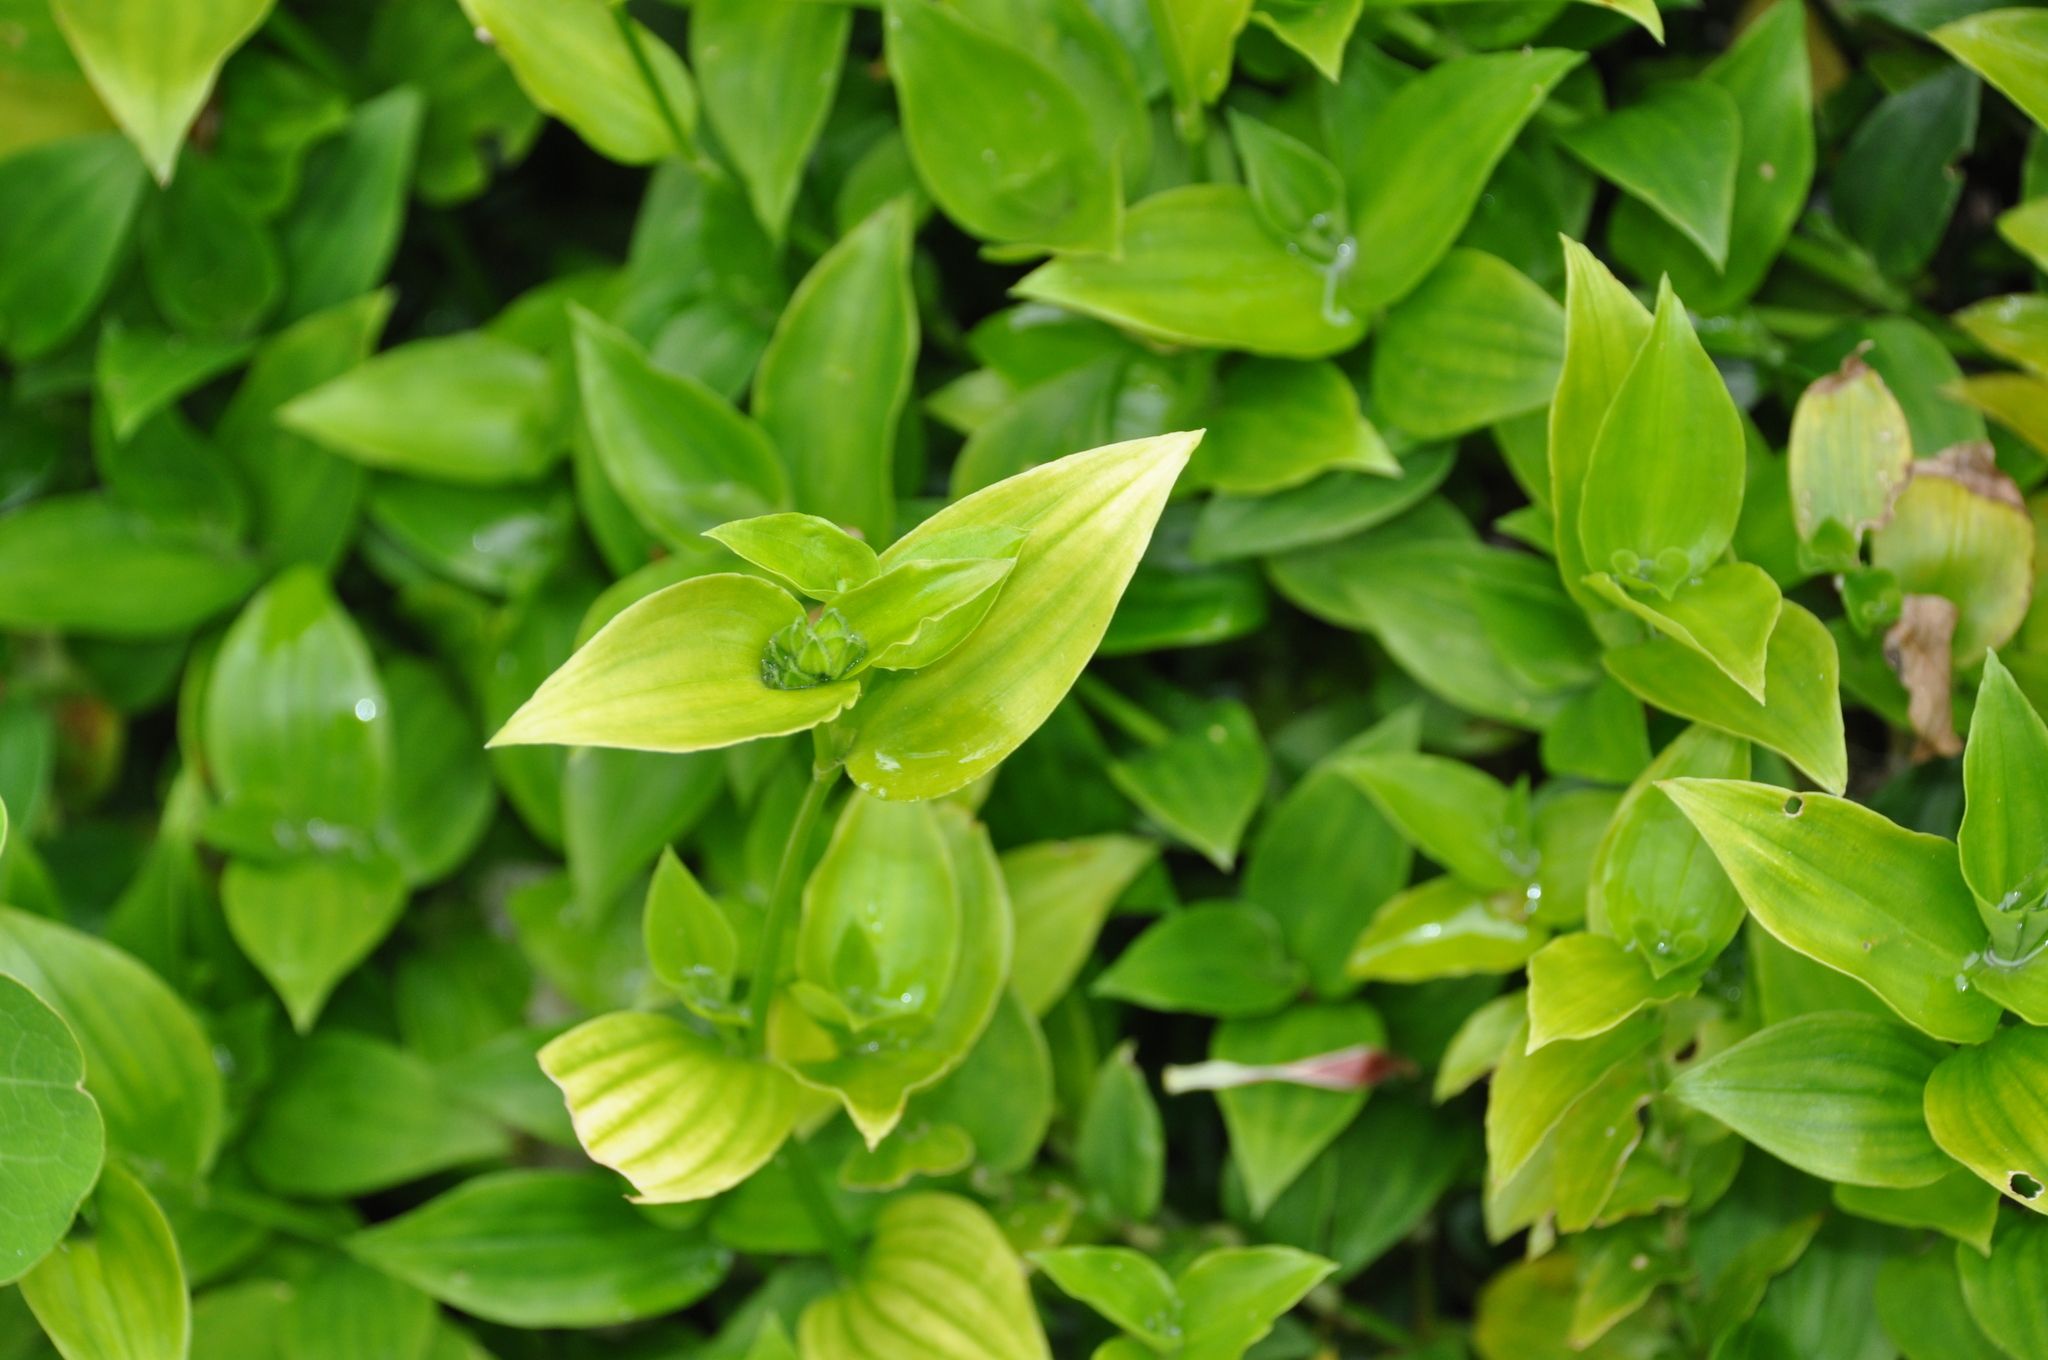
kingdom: Plantae
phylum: Tracheophyta
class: Liliopsida
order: Commelinales
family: Commelinaceae
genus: Tradescantia
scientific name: Tradescantia fluminensis
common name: Wandering-jew
